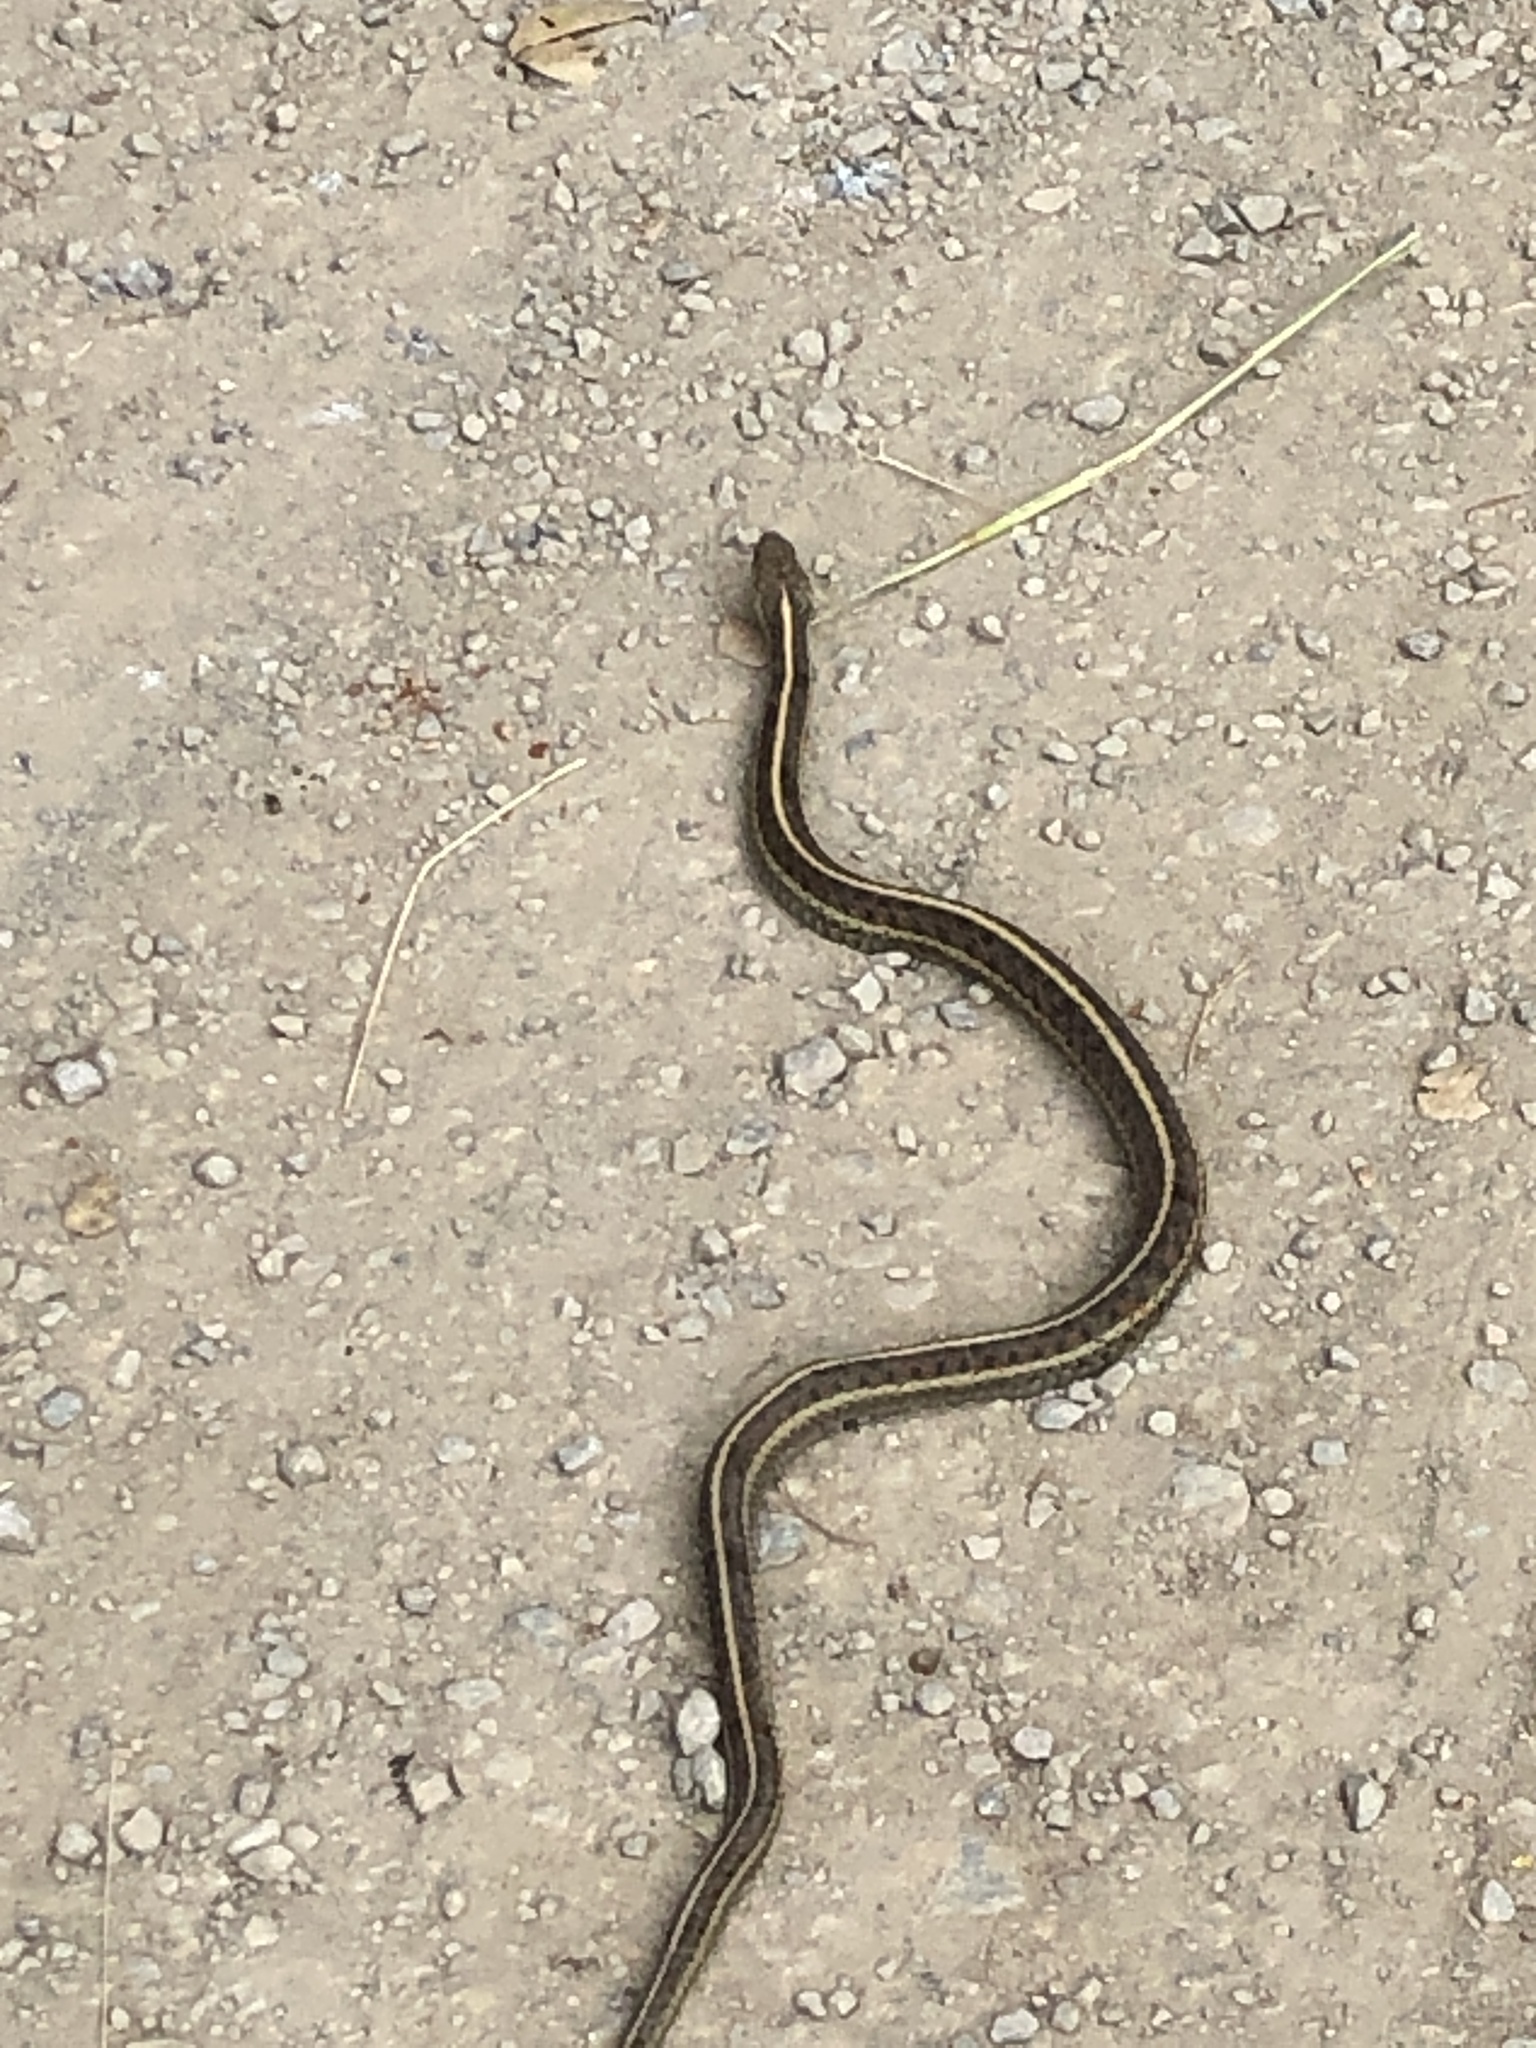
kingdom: Animalia
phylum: Chordata
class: Squamata
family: Colubridae
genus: Thamnophis
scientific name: Thamnophis elegans
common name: Western terrestrial garter snake
